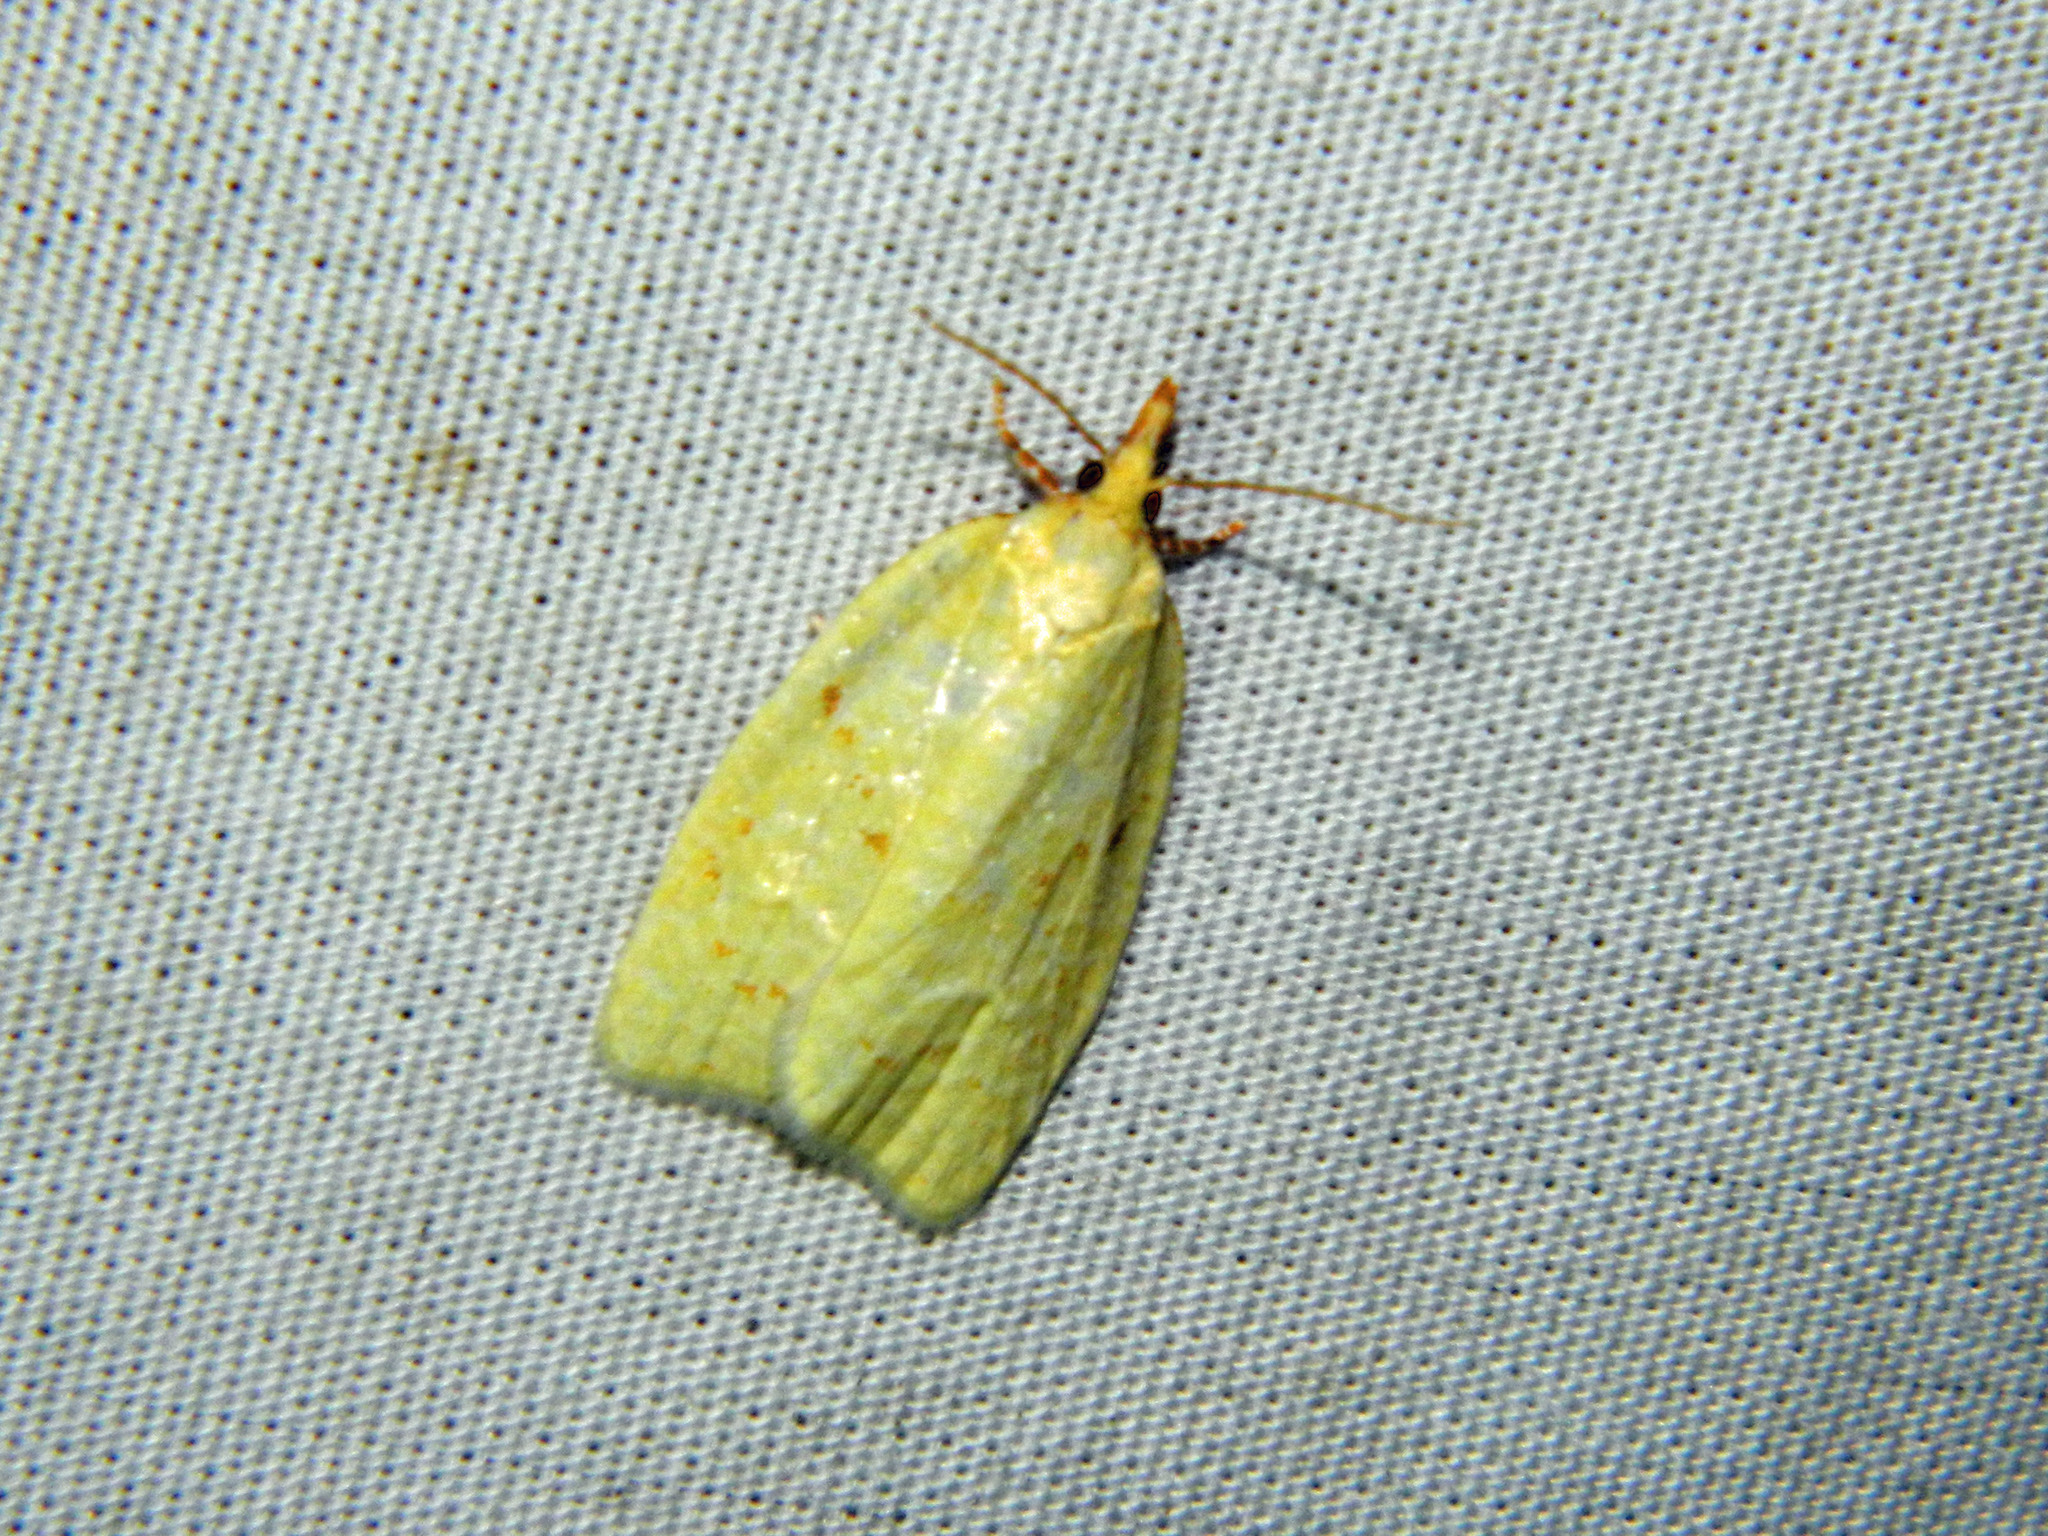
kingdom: Animalia
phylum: Arthropoda
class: Insecta
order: Lepidoptera
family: Tortricidae
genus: Cenopis
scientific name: Cenopis pettitana
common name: Maple-basswood leafroller moth
